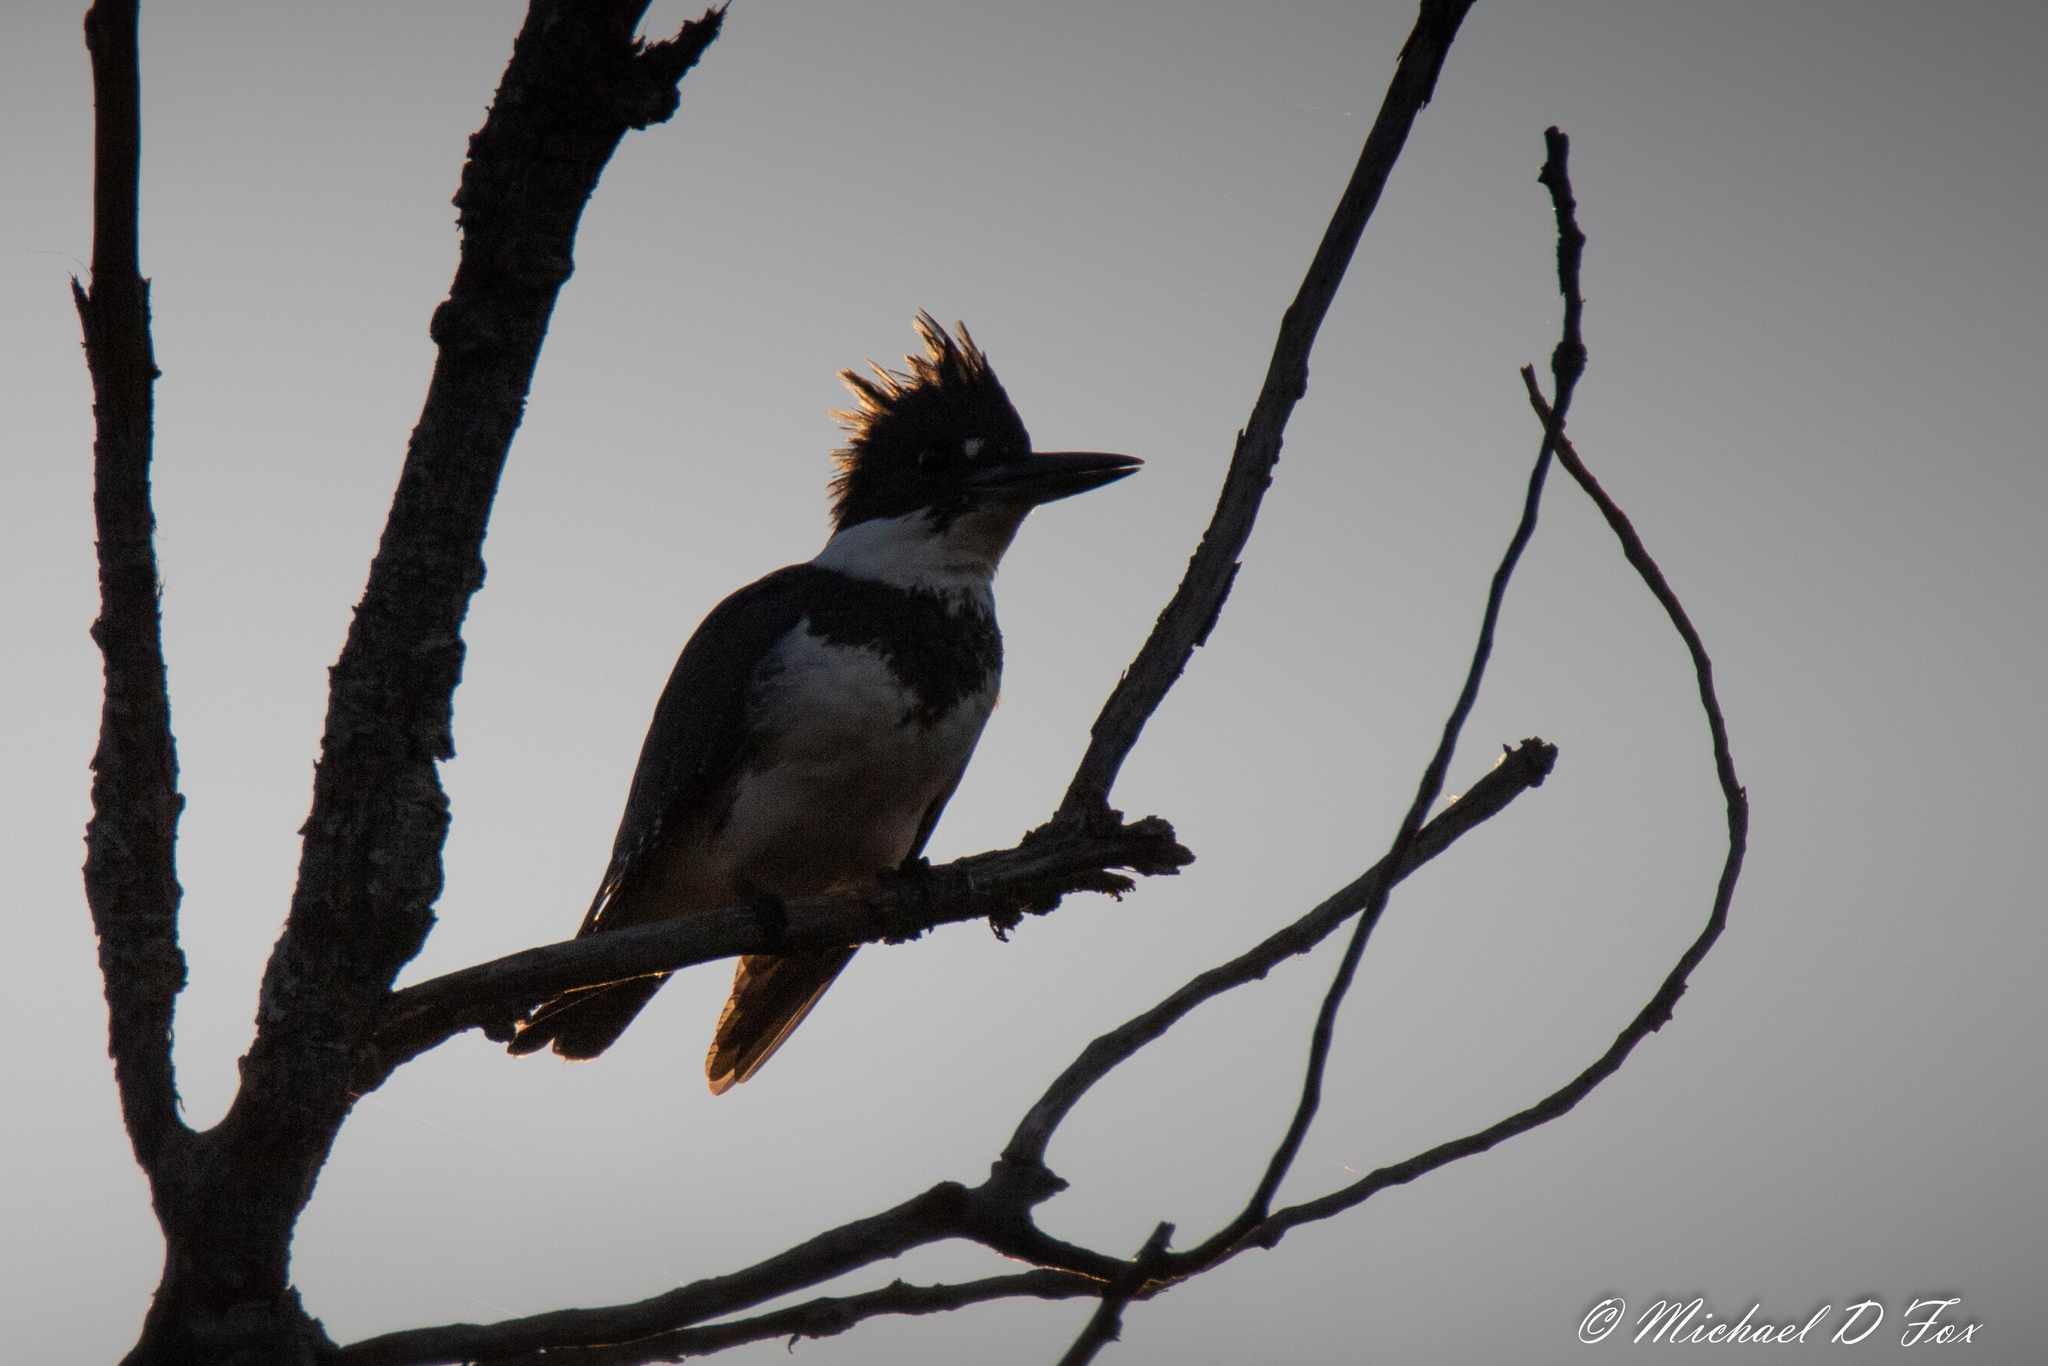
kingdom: Animalia
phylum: Chordata
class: Aves
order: Coraciiformes
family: Alcedinidae
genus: Megaceryle
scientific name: Megaceryle alcyon
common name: Belted kingfisher
